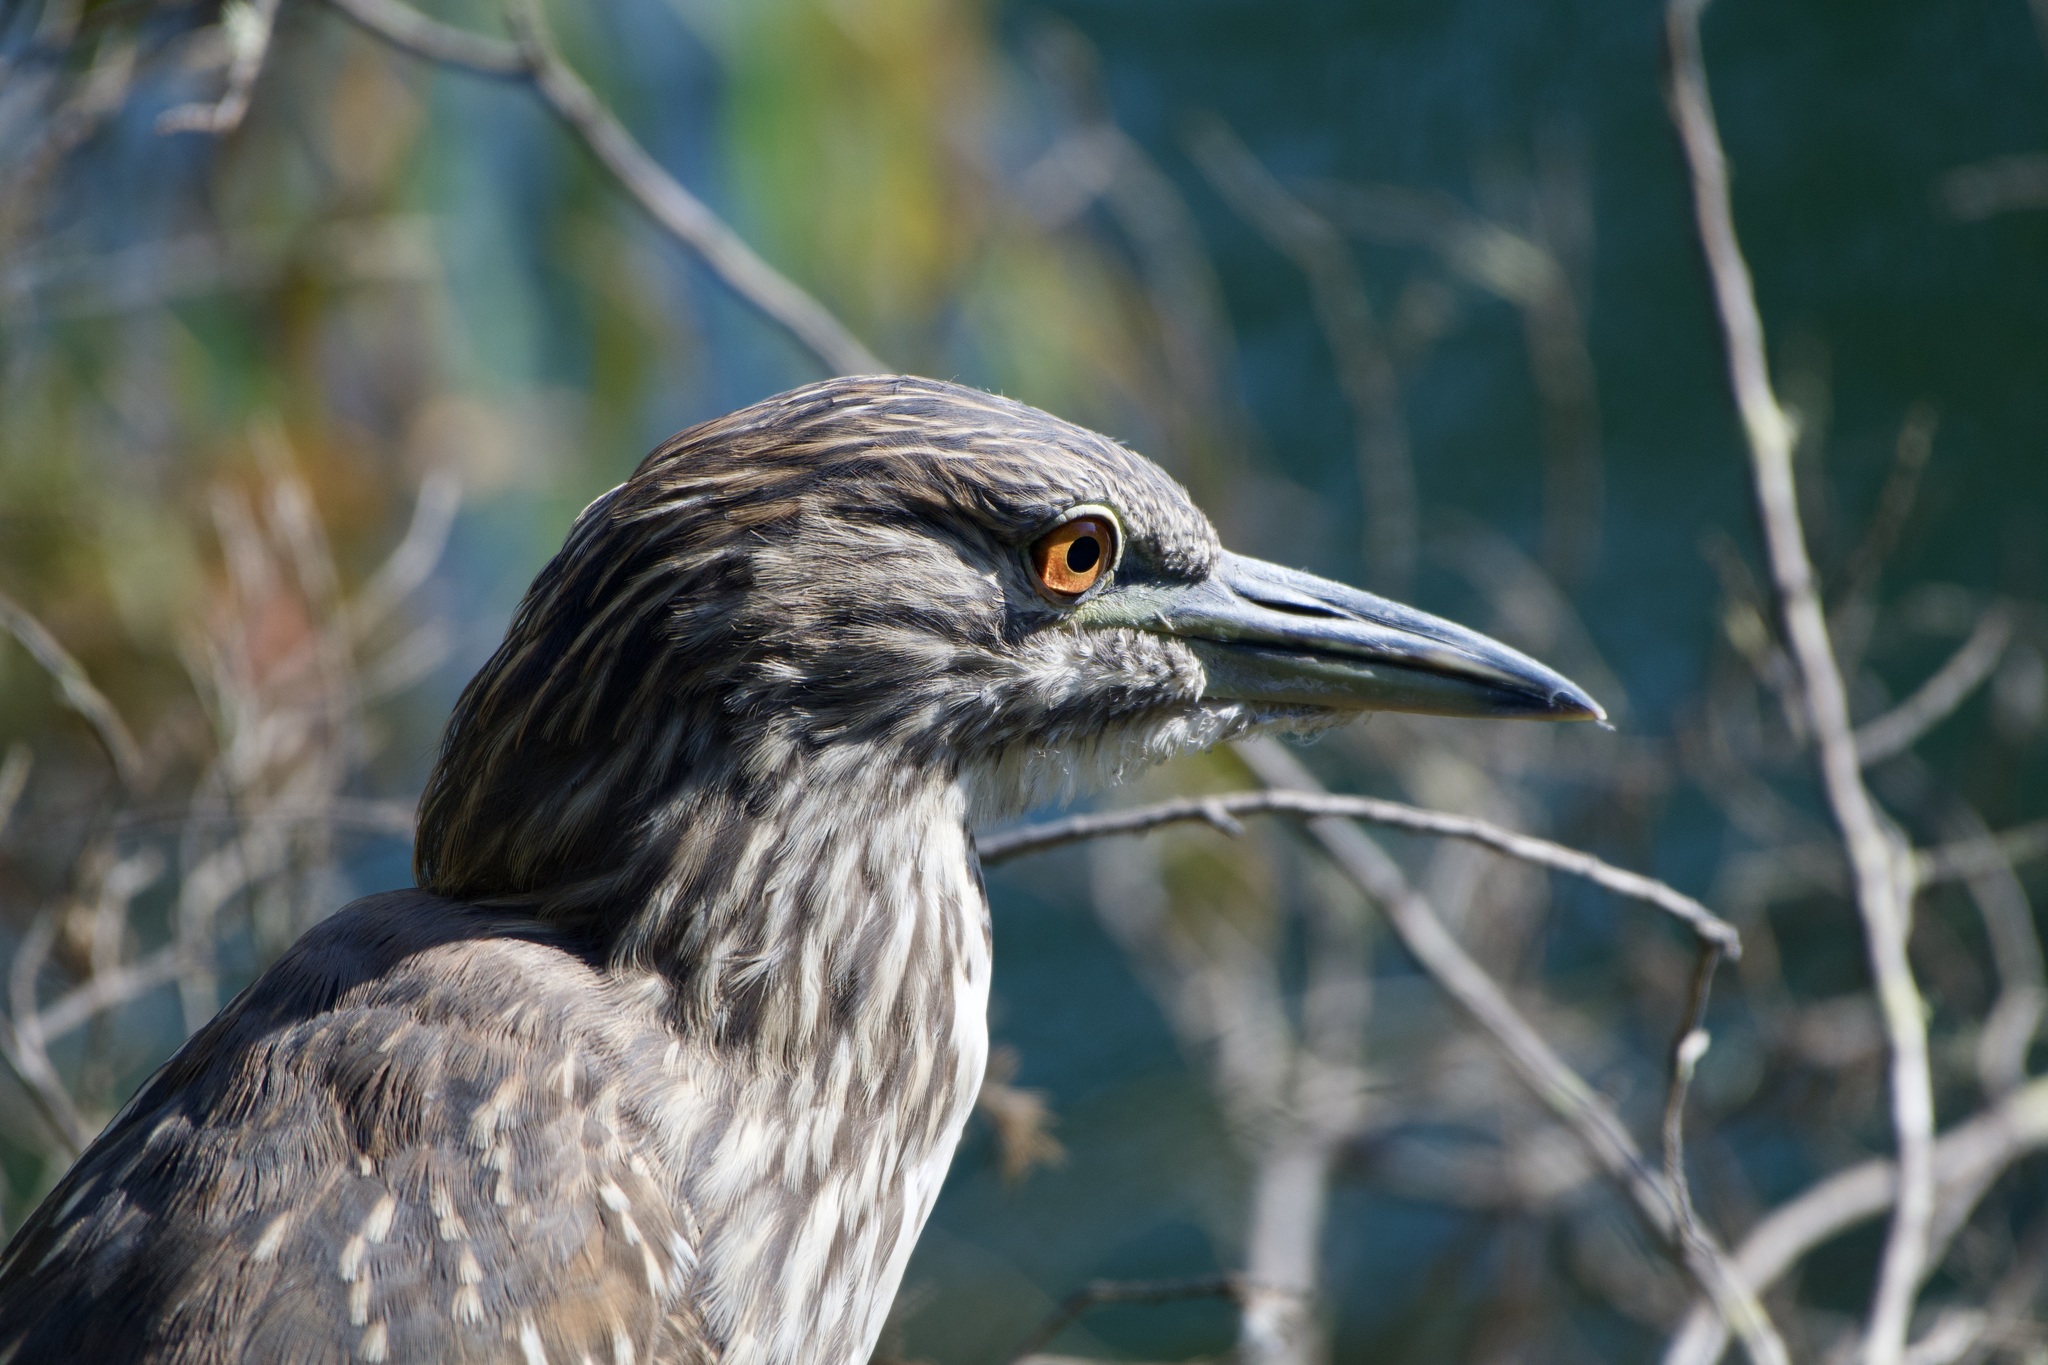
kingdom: Animalia
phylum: Chordata
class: Aves
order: Pelecaniformes
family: Ardeidae
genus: Nycticorax
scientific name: Nycticorax nycticorax
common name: Black-crowned night heron
